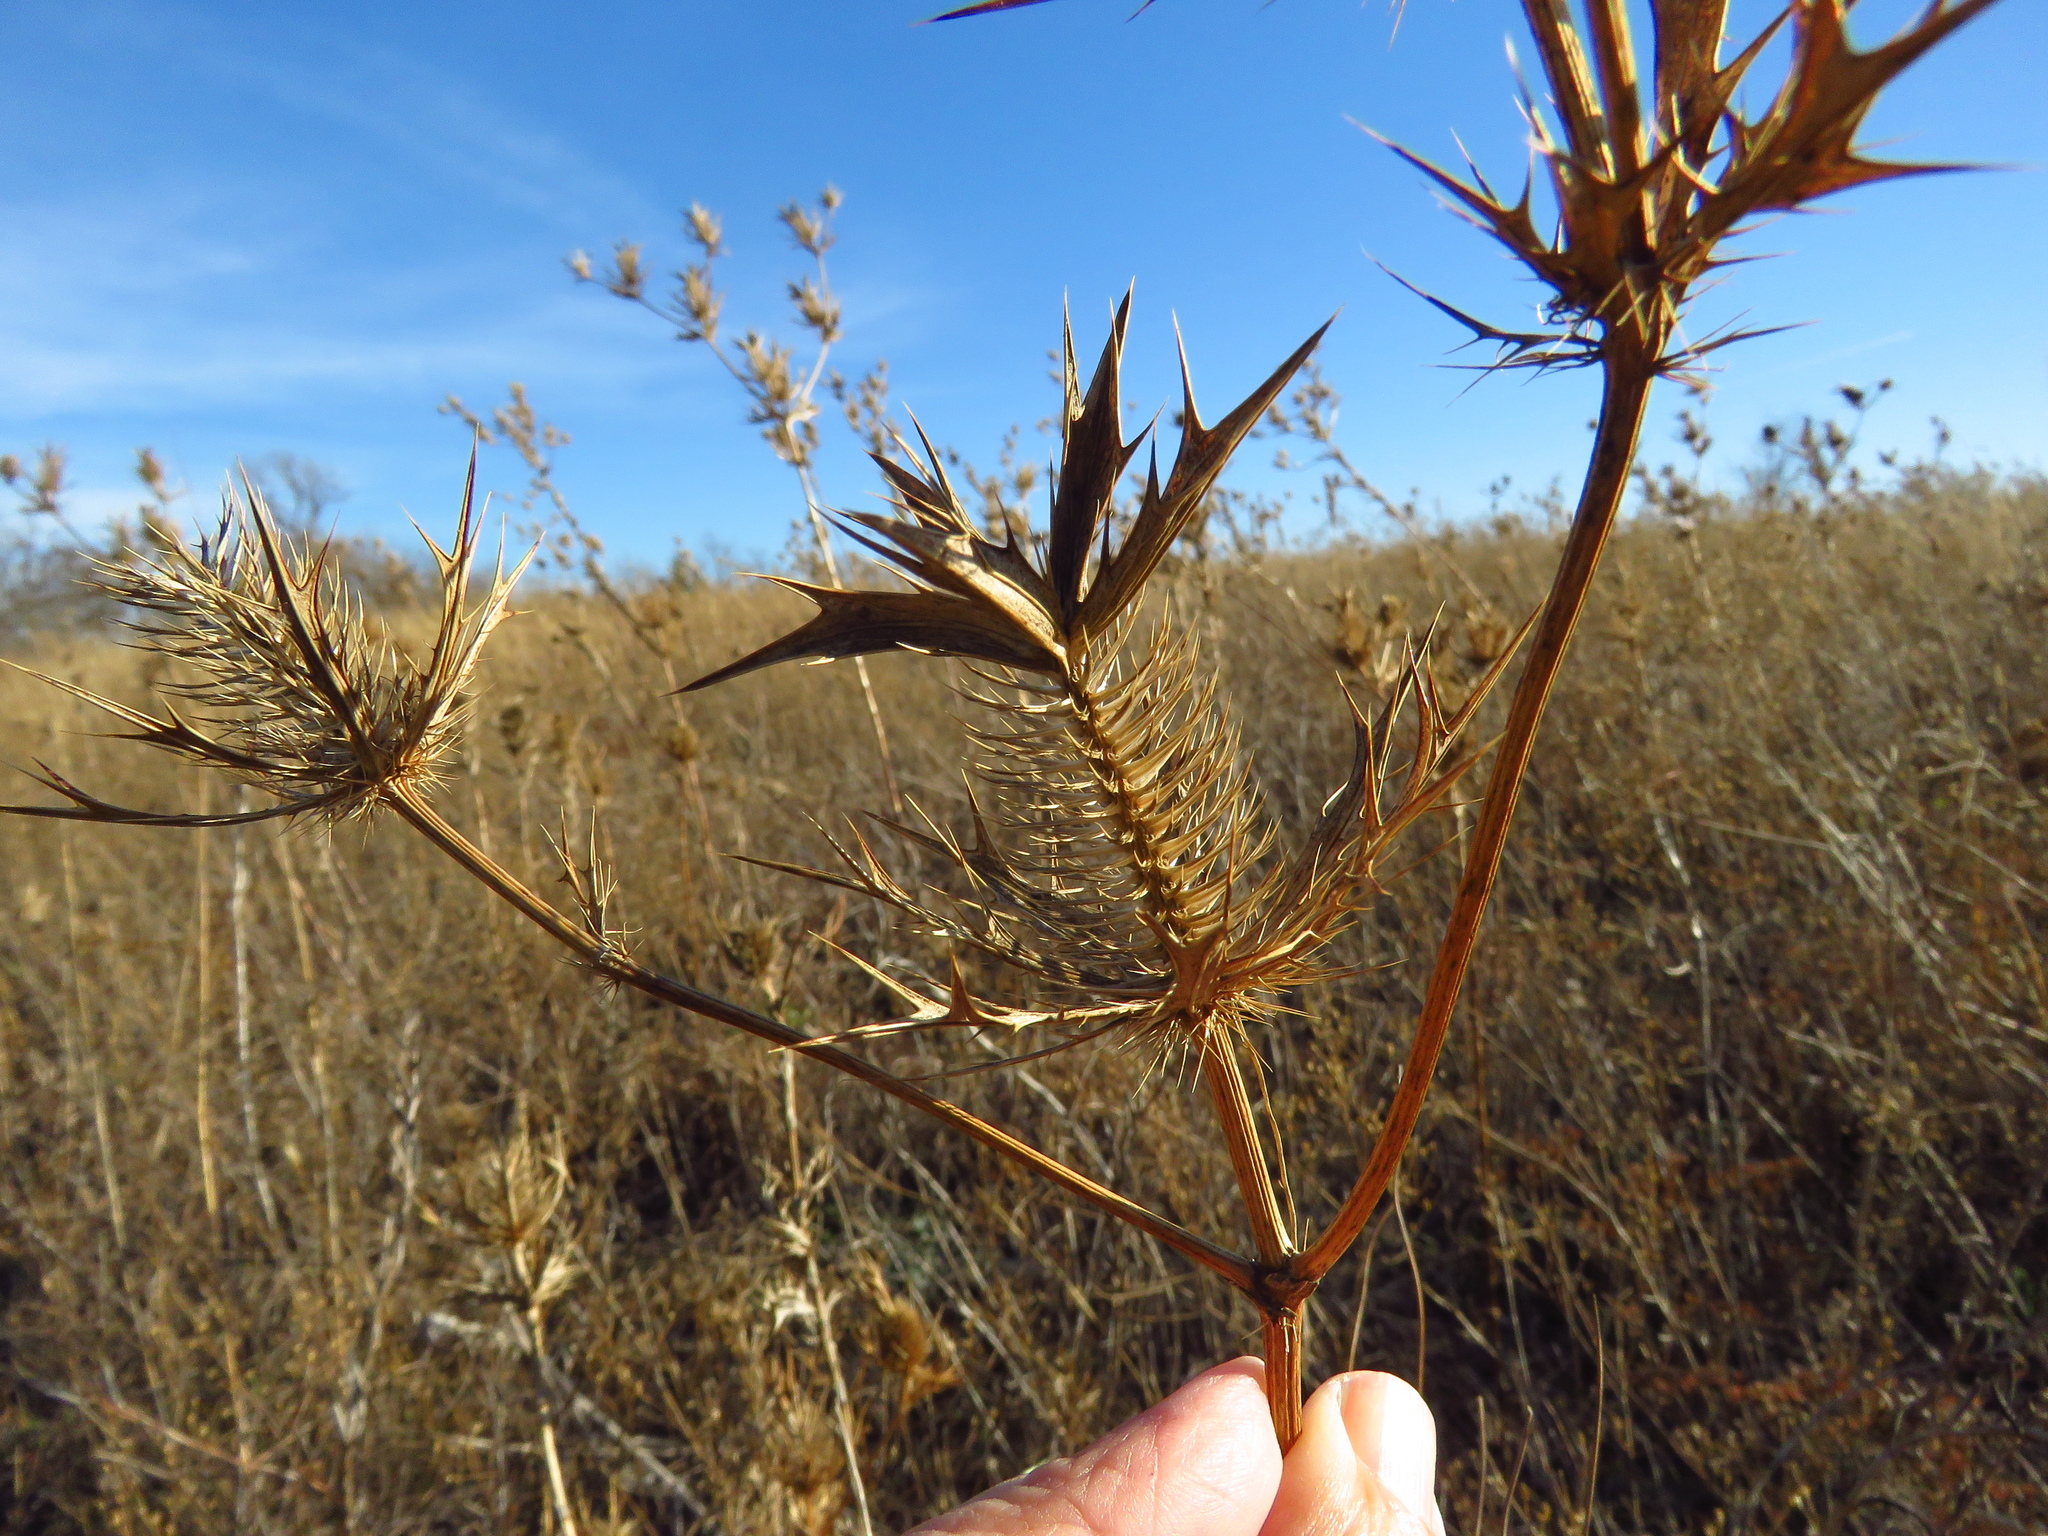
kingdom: Plantae
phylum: Tracheophyta
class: Magnoliopsida
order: Apiales
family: Apiaceae
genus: Eryngium
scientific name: Eryngium leavenworthii
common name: Leavenworth's eryngo
